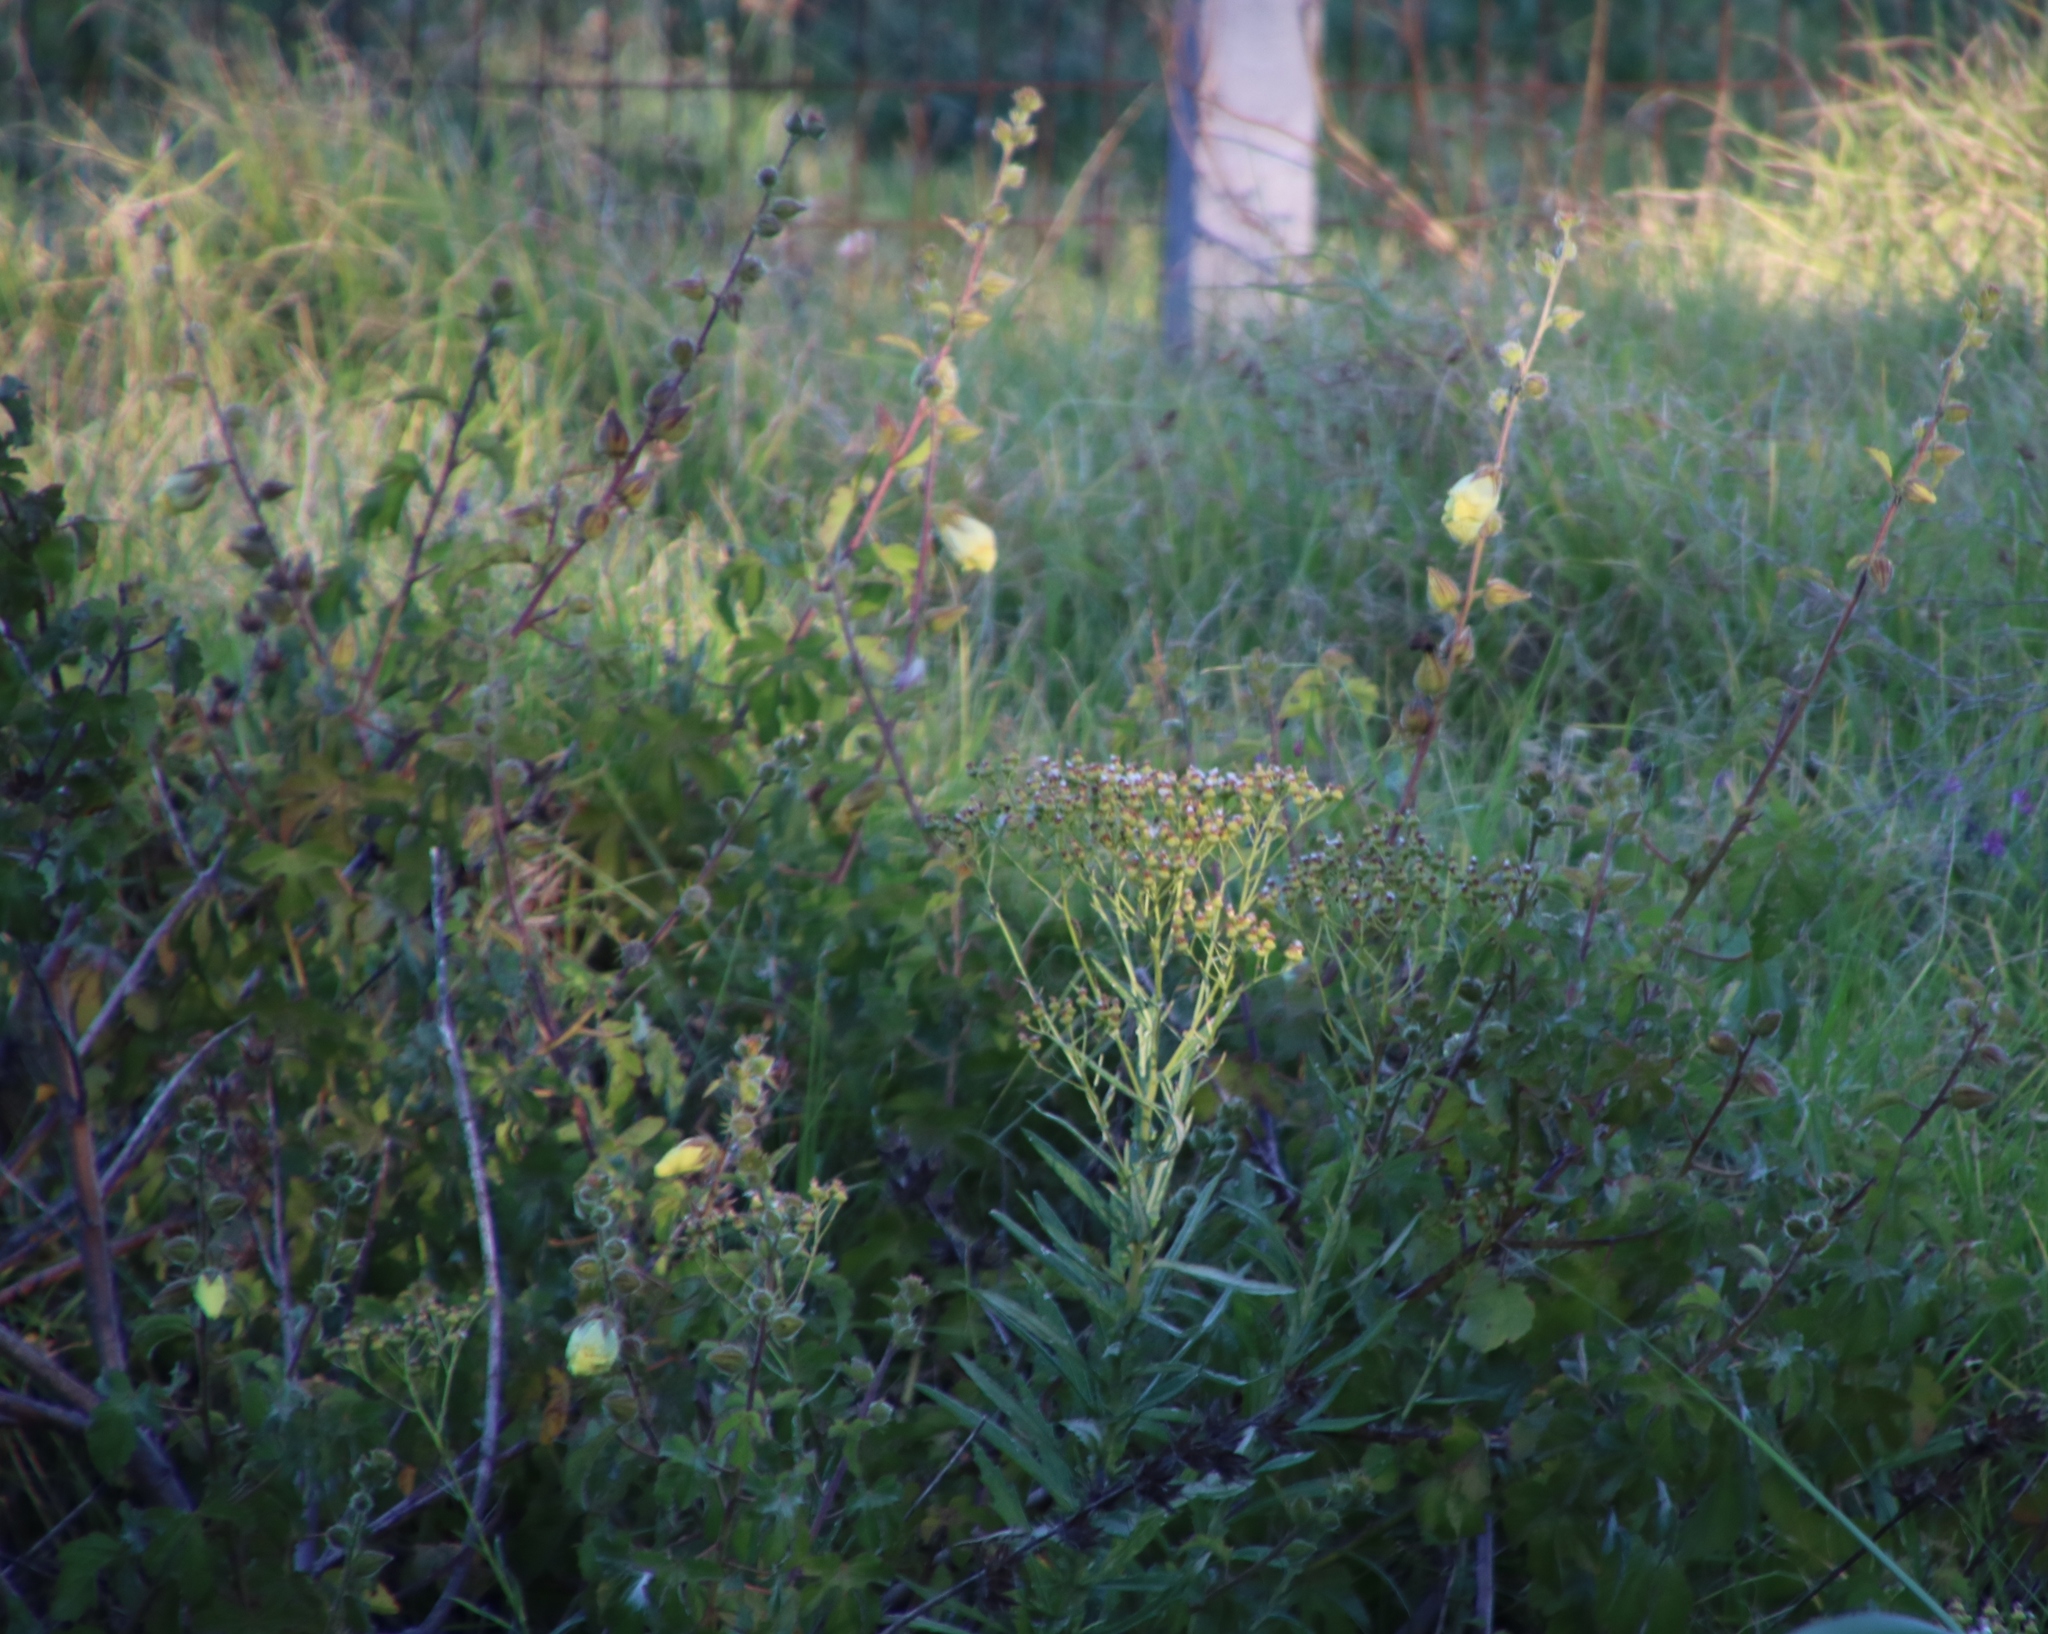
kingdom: Plantae
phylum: Tracheophyta
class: Magnoliopsida
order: Malvales
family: Malvaceae
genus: Hibiscus
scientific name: Hibiscus diversifolius
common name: Cape hibiscus
